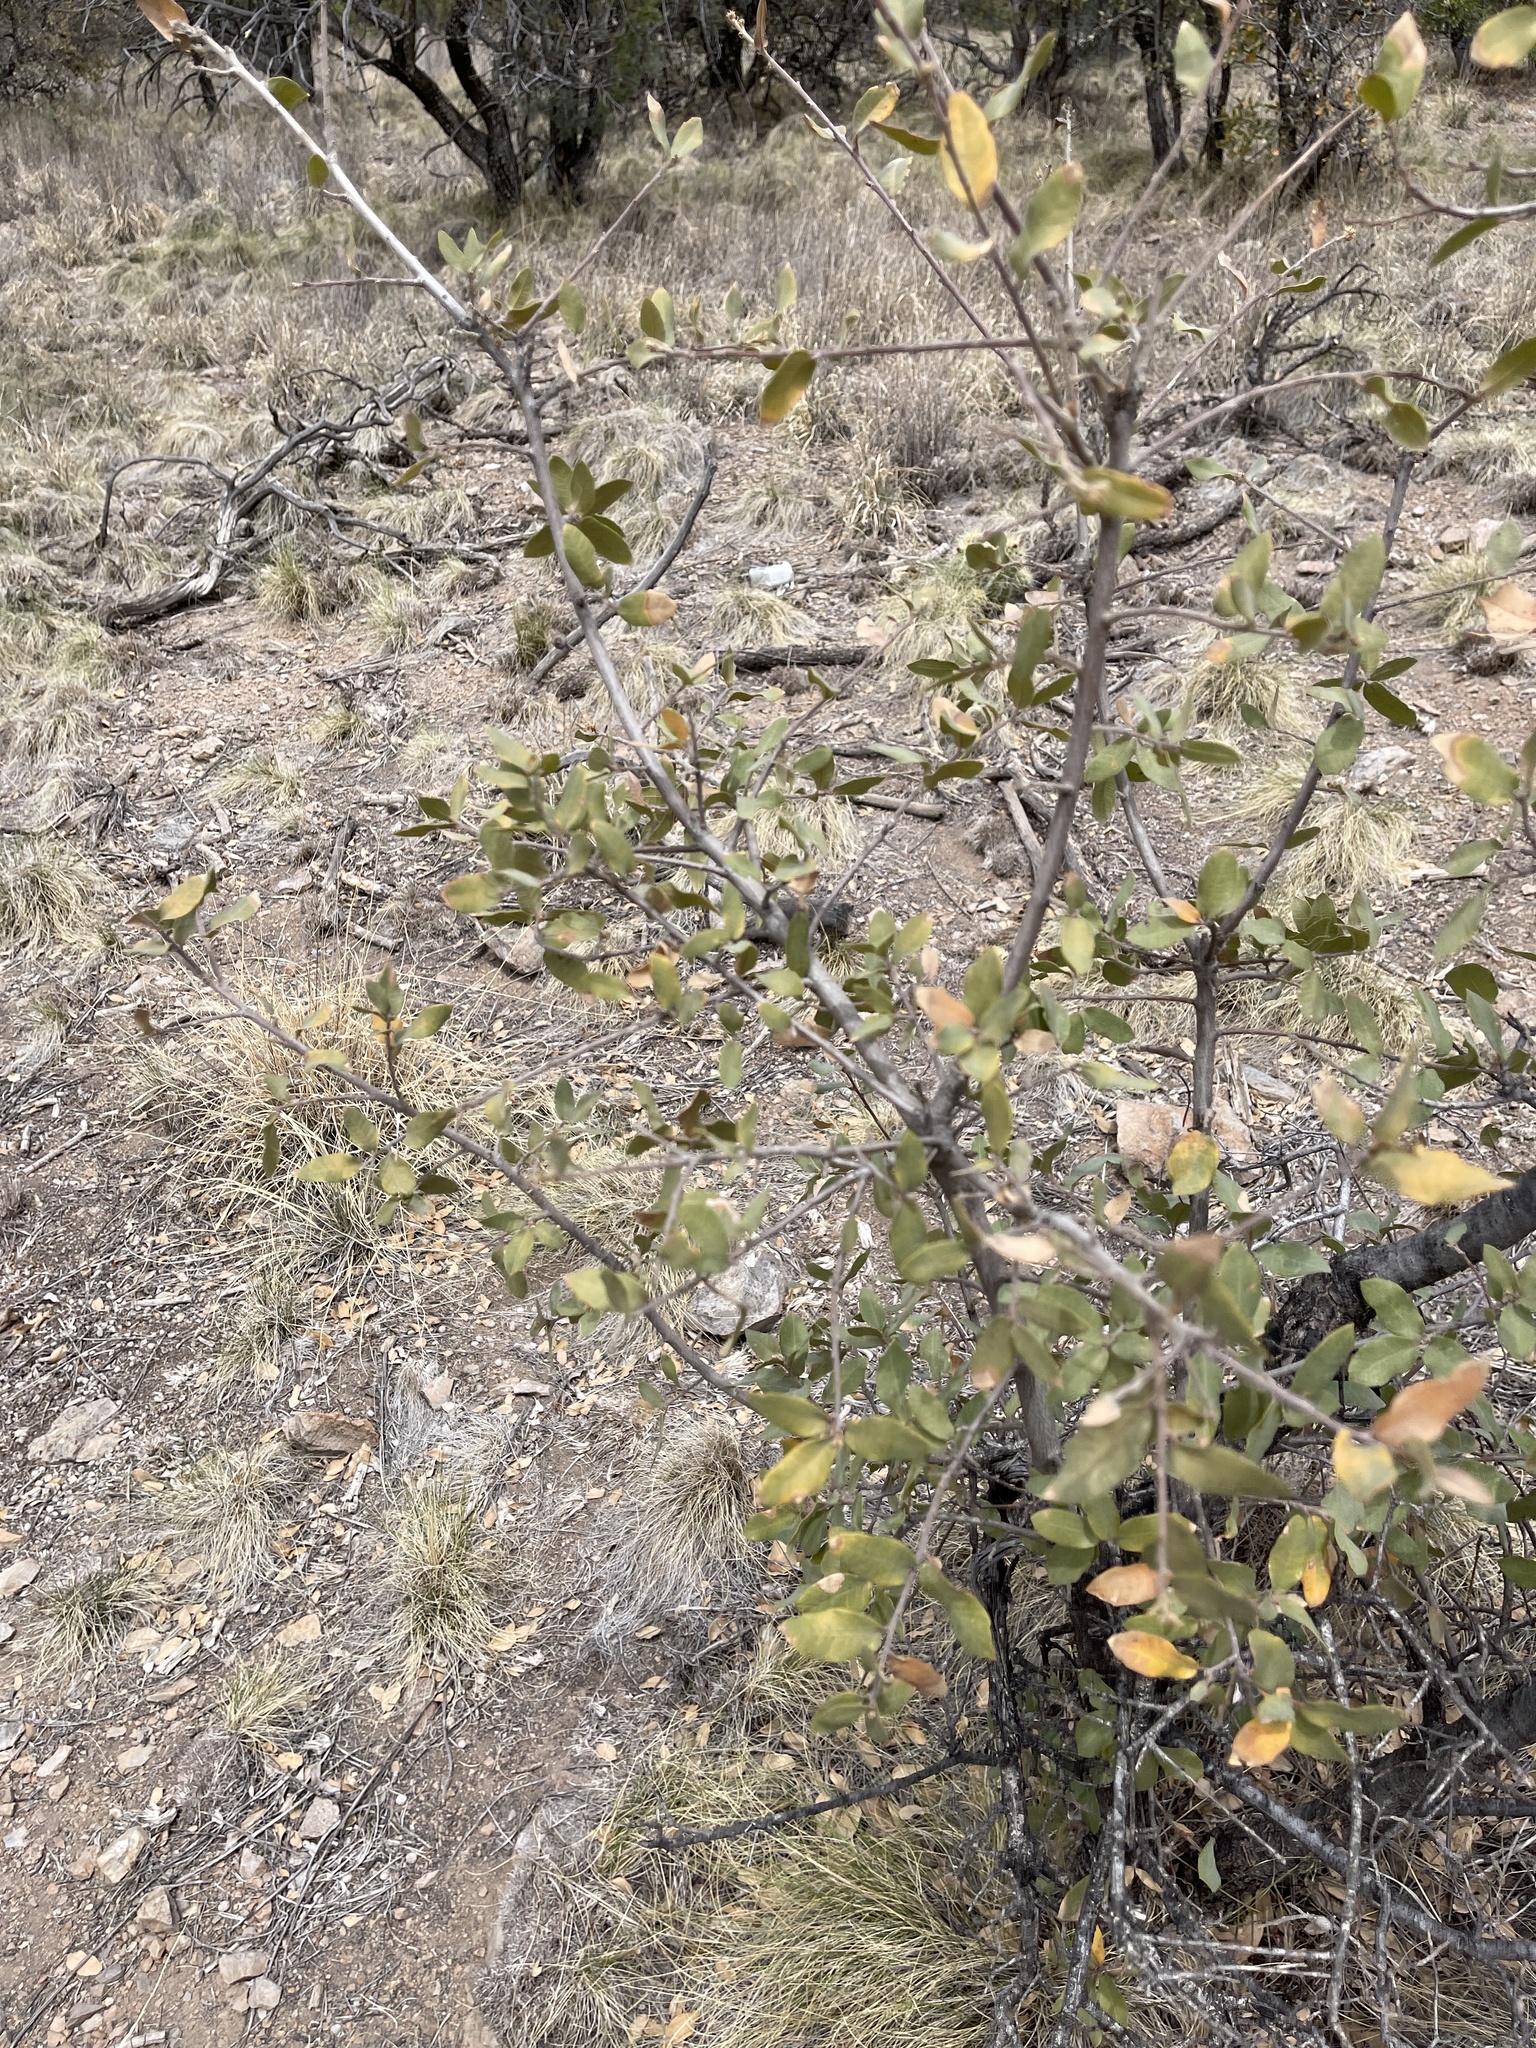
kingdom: Plantae
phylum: Tracheophyta
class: Magnoliopsida
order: Garryales
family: Garryaceae
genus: Garrya
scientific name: Garrya wrightii
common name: Wright's silktassel
